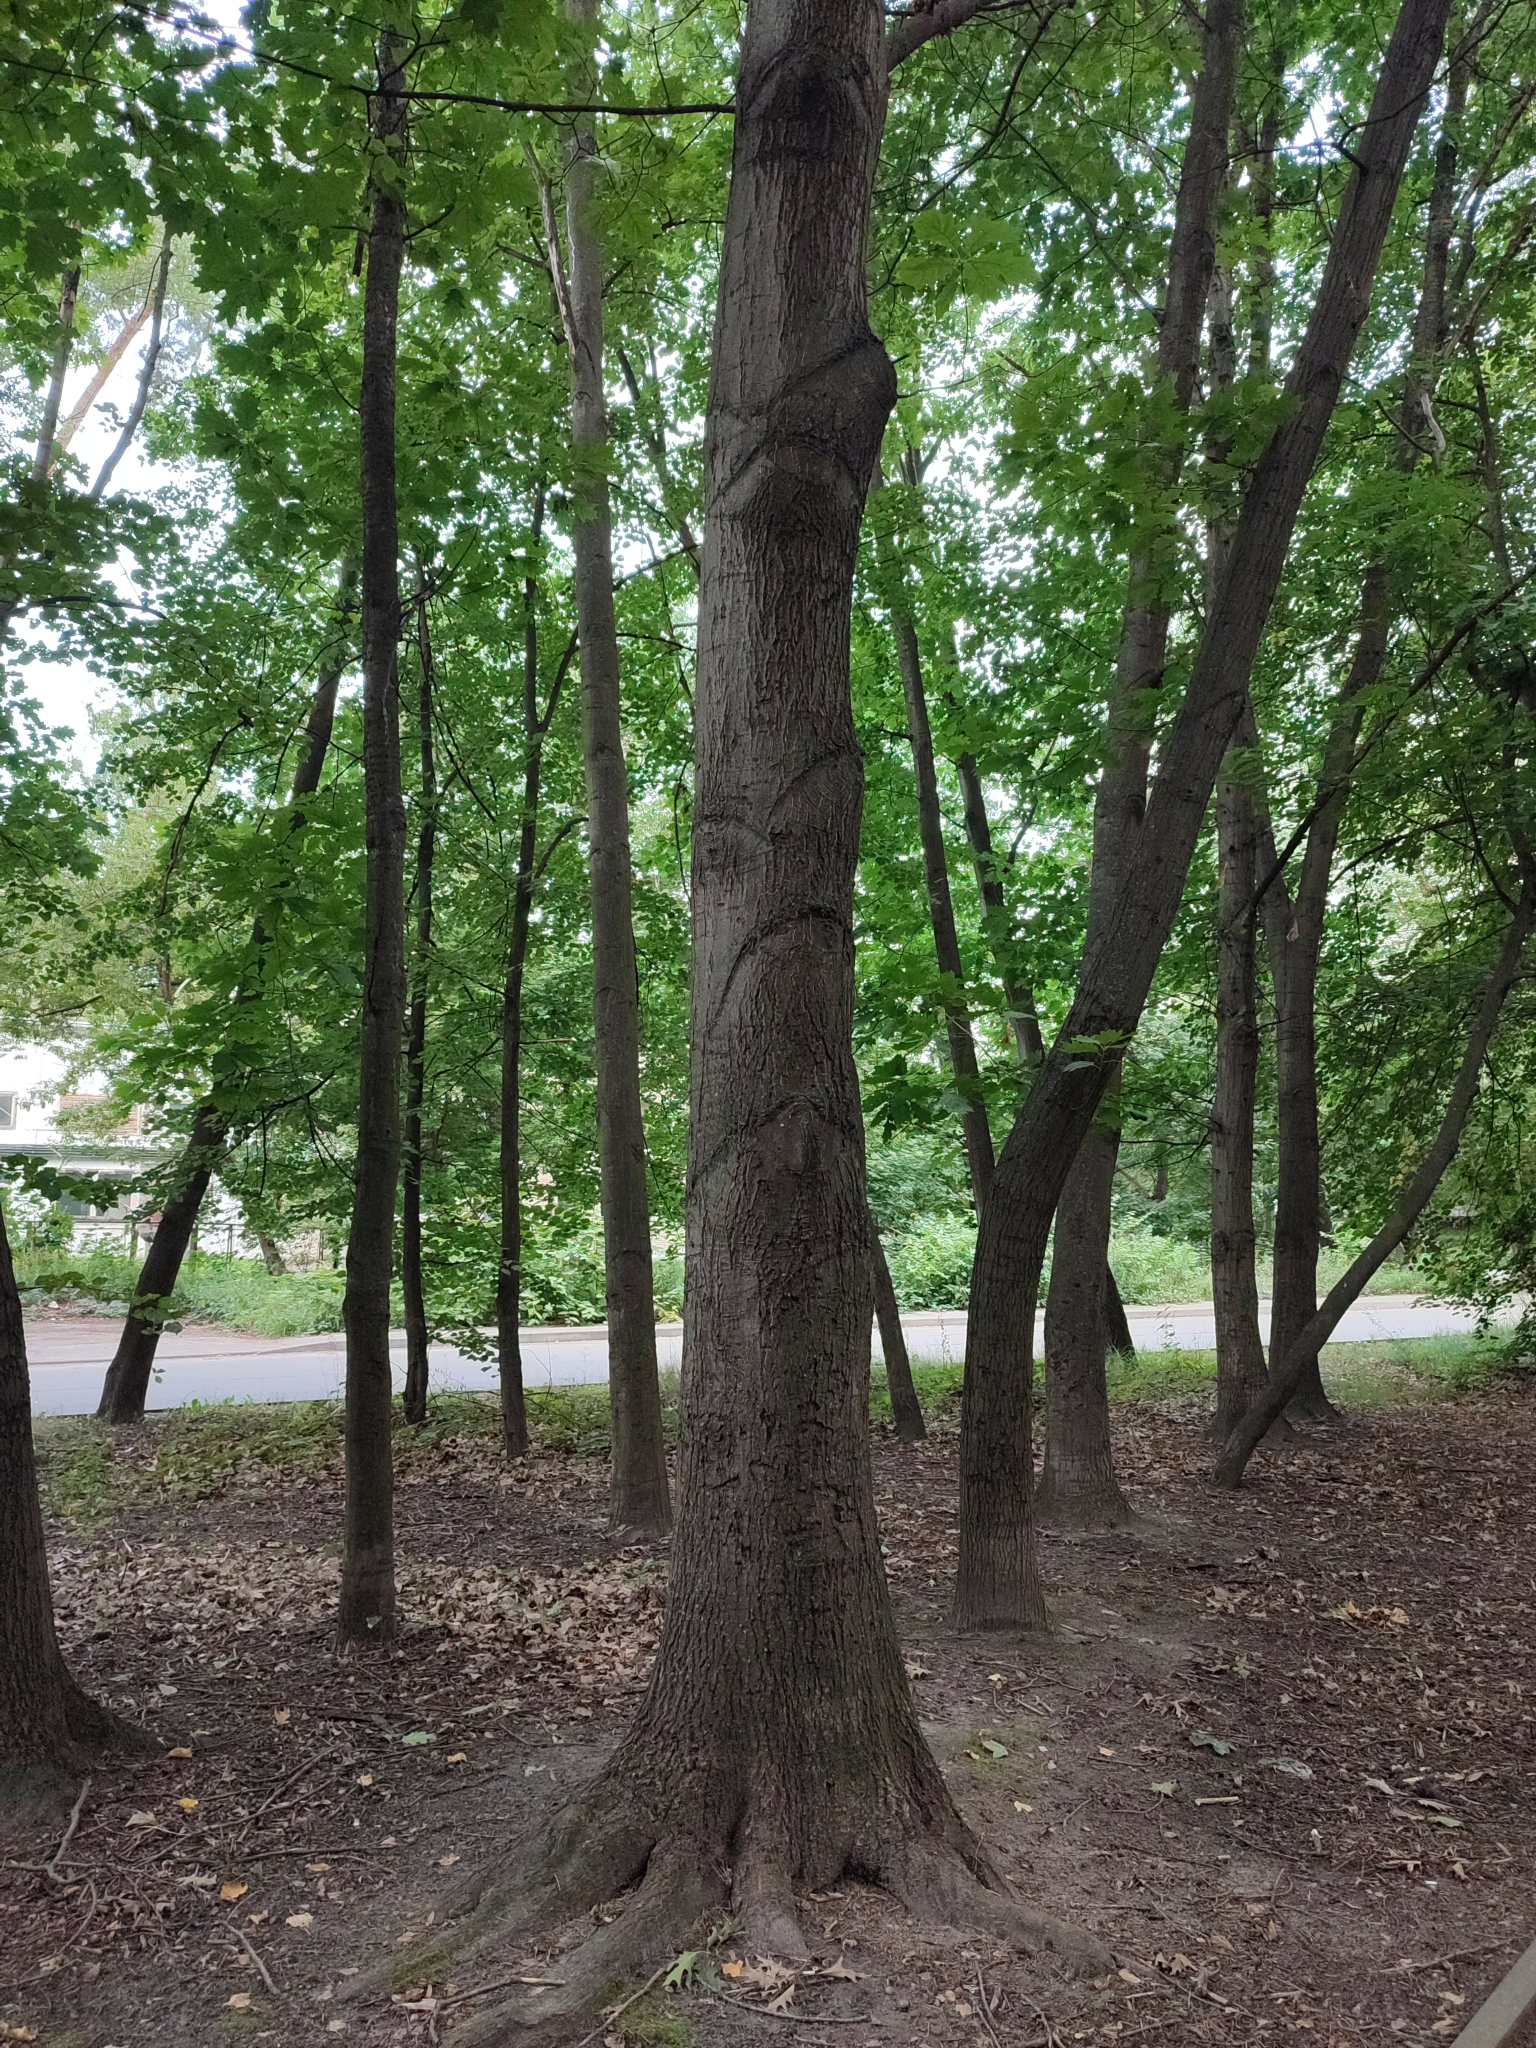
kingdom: Plantae
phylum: Tracheophyta
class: Magnoliopsida
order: Fagales
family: Fagaceae
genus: Quercus
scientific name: Quercus robur
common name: Pedunculate oak
